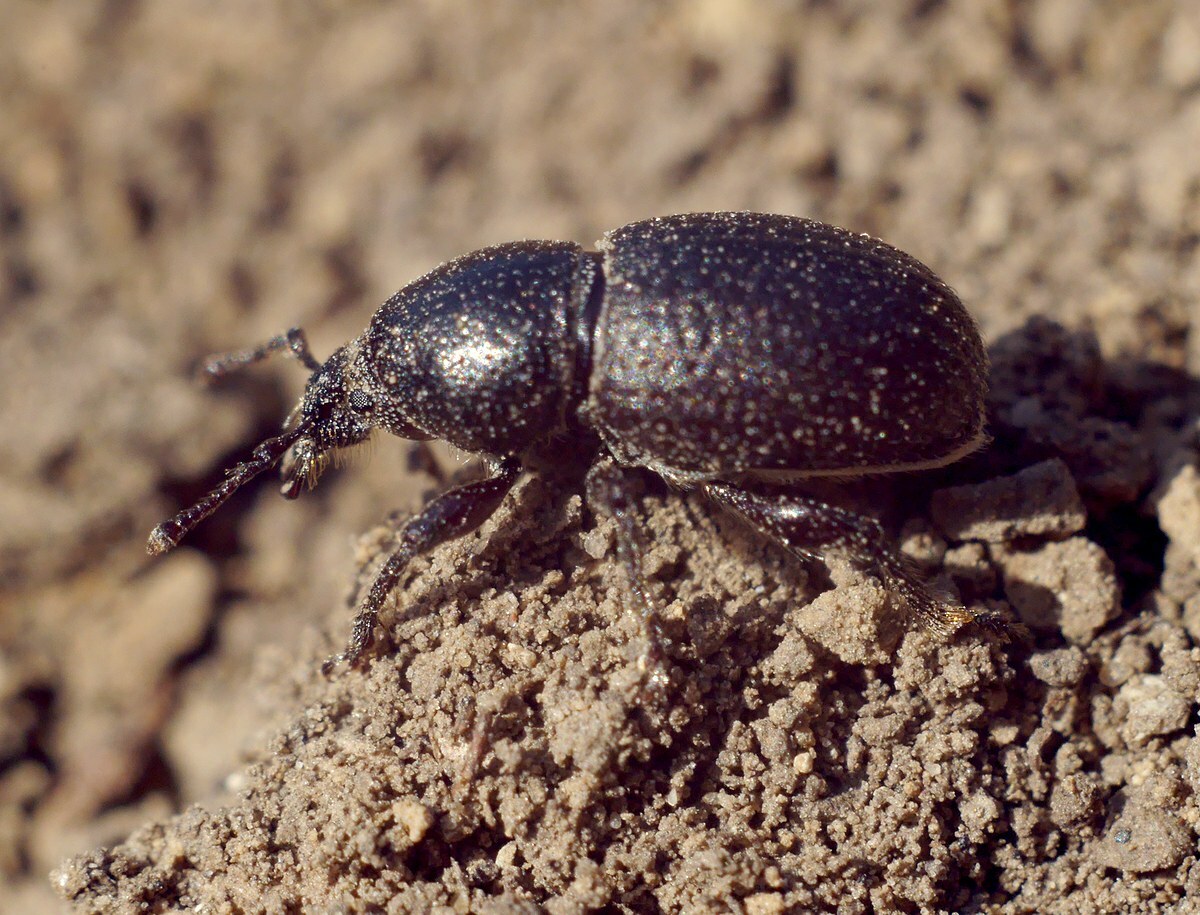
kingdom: Animalia
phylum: Arthropoda
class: Insecta
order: Coleoptera
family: Curculionidae
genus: Psallidium
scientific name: Psallidium maxillosum
